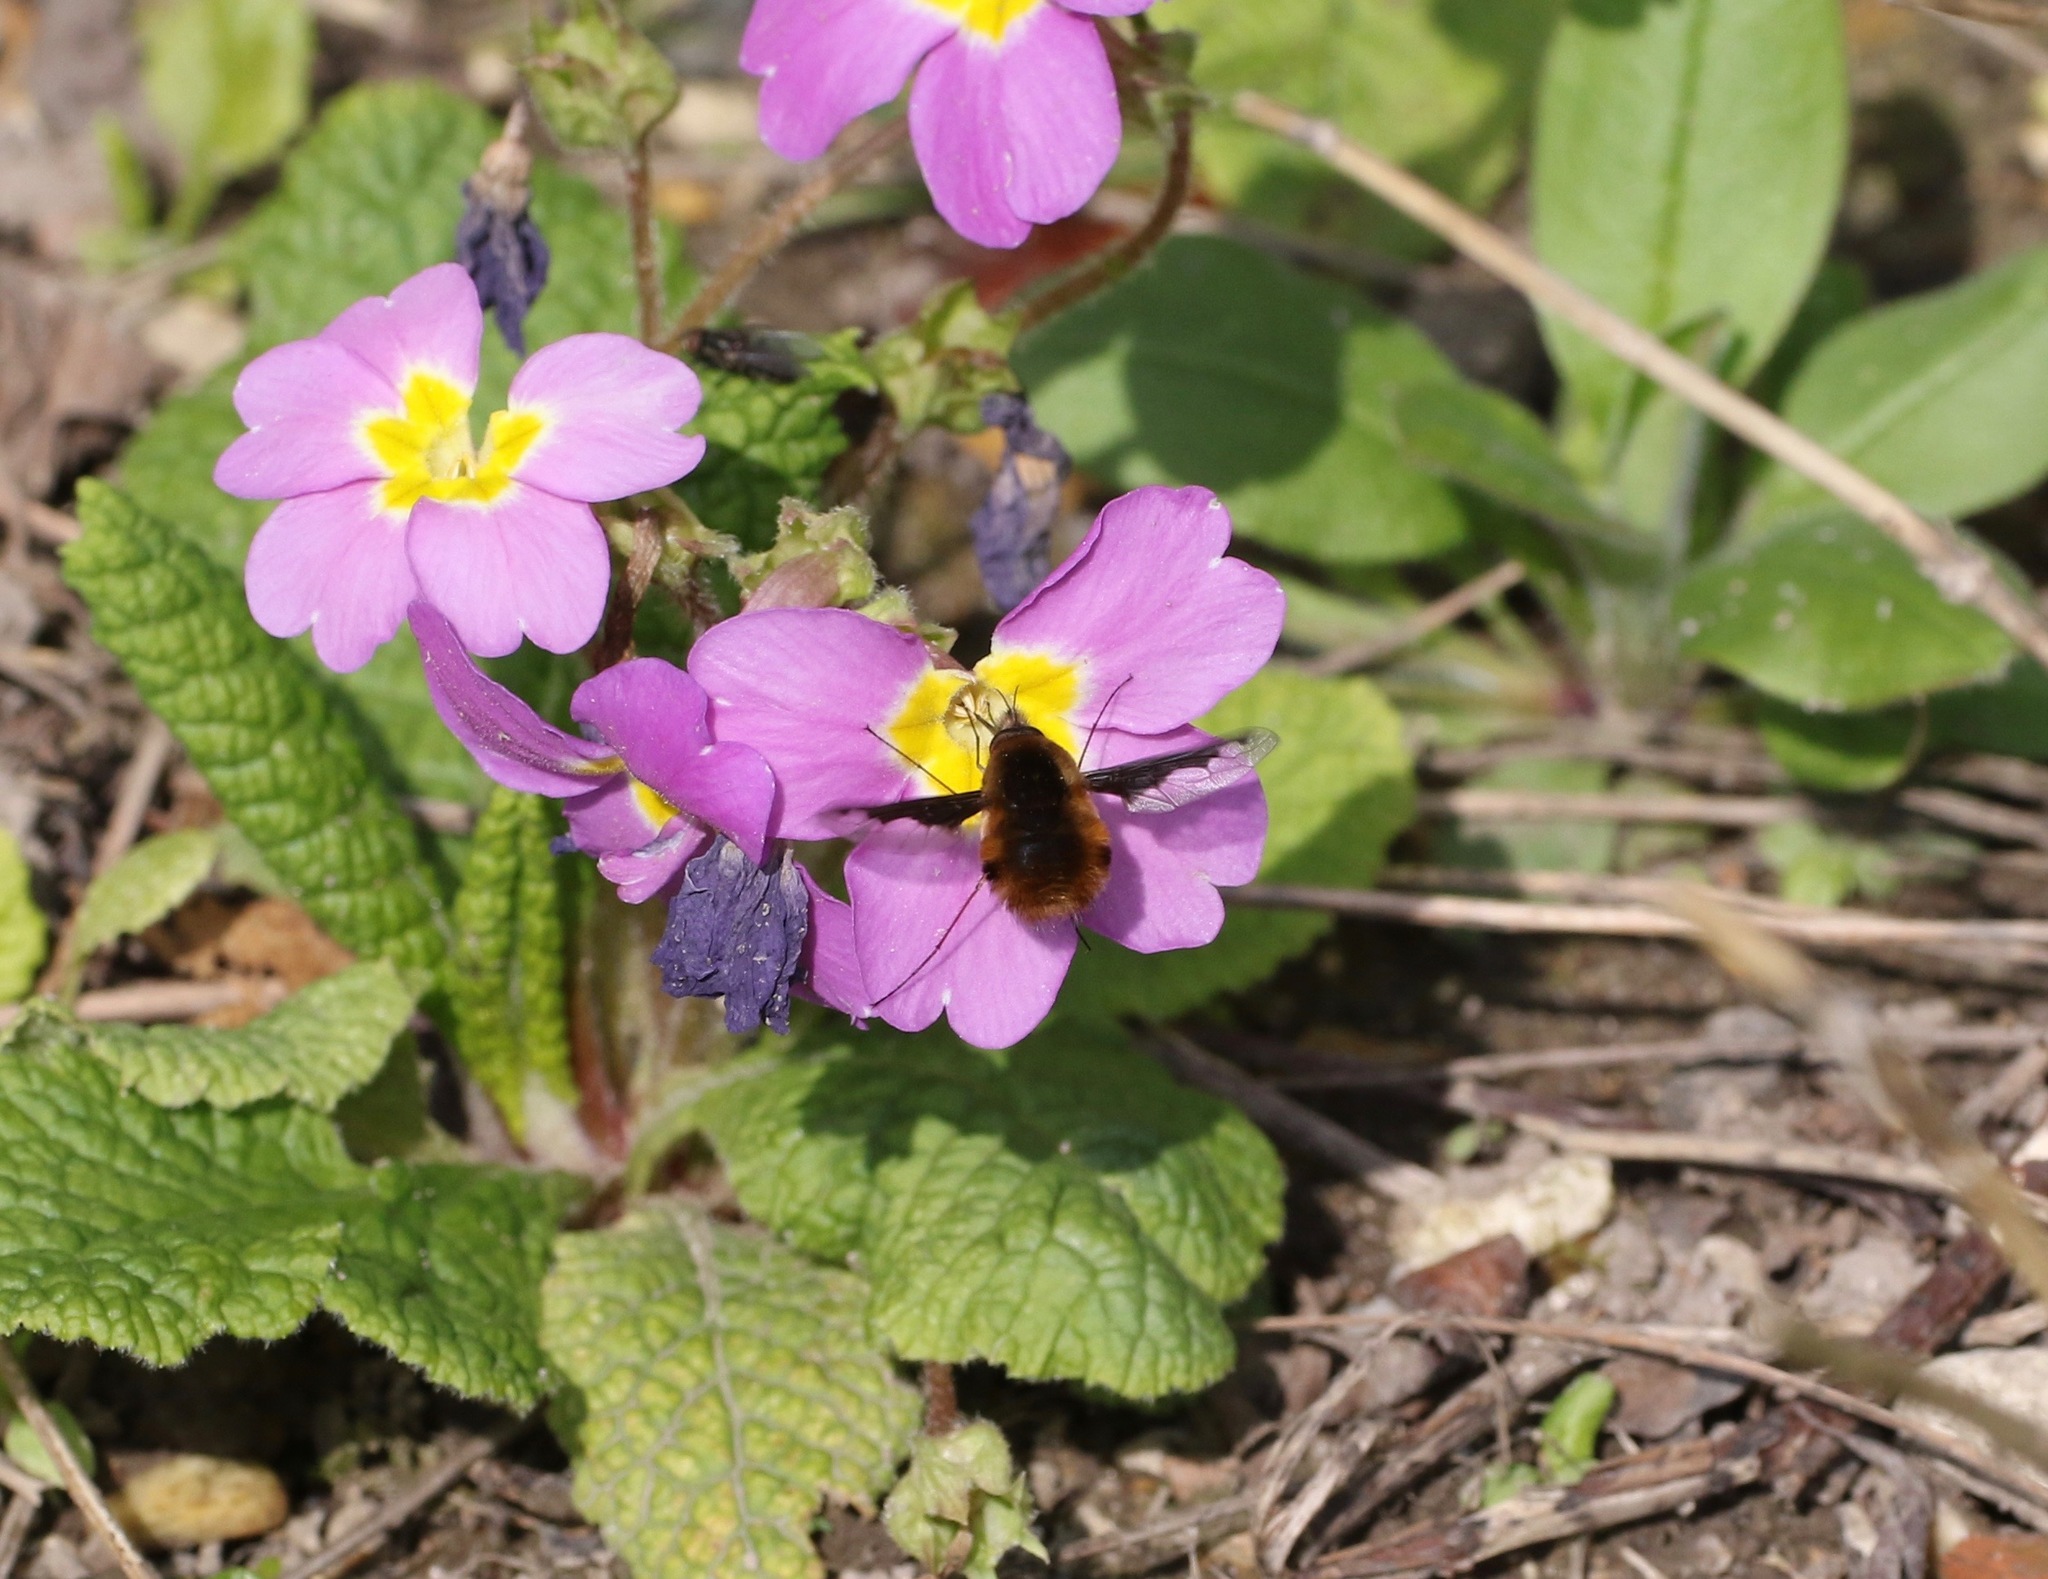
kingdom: Animalia
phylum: Arthropoda
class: Insecta
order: Diptera
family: Bombyliidae
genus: Bombylius
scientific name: Bombylius major
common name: Bee fly
